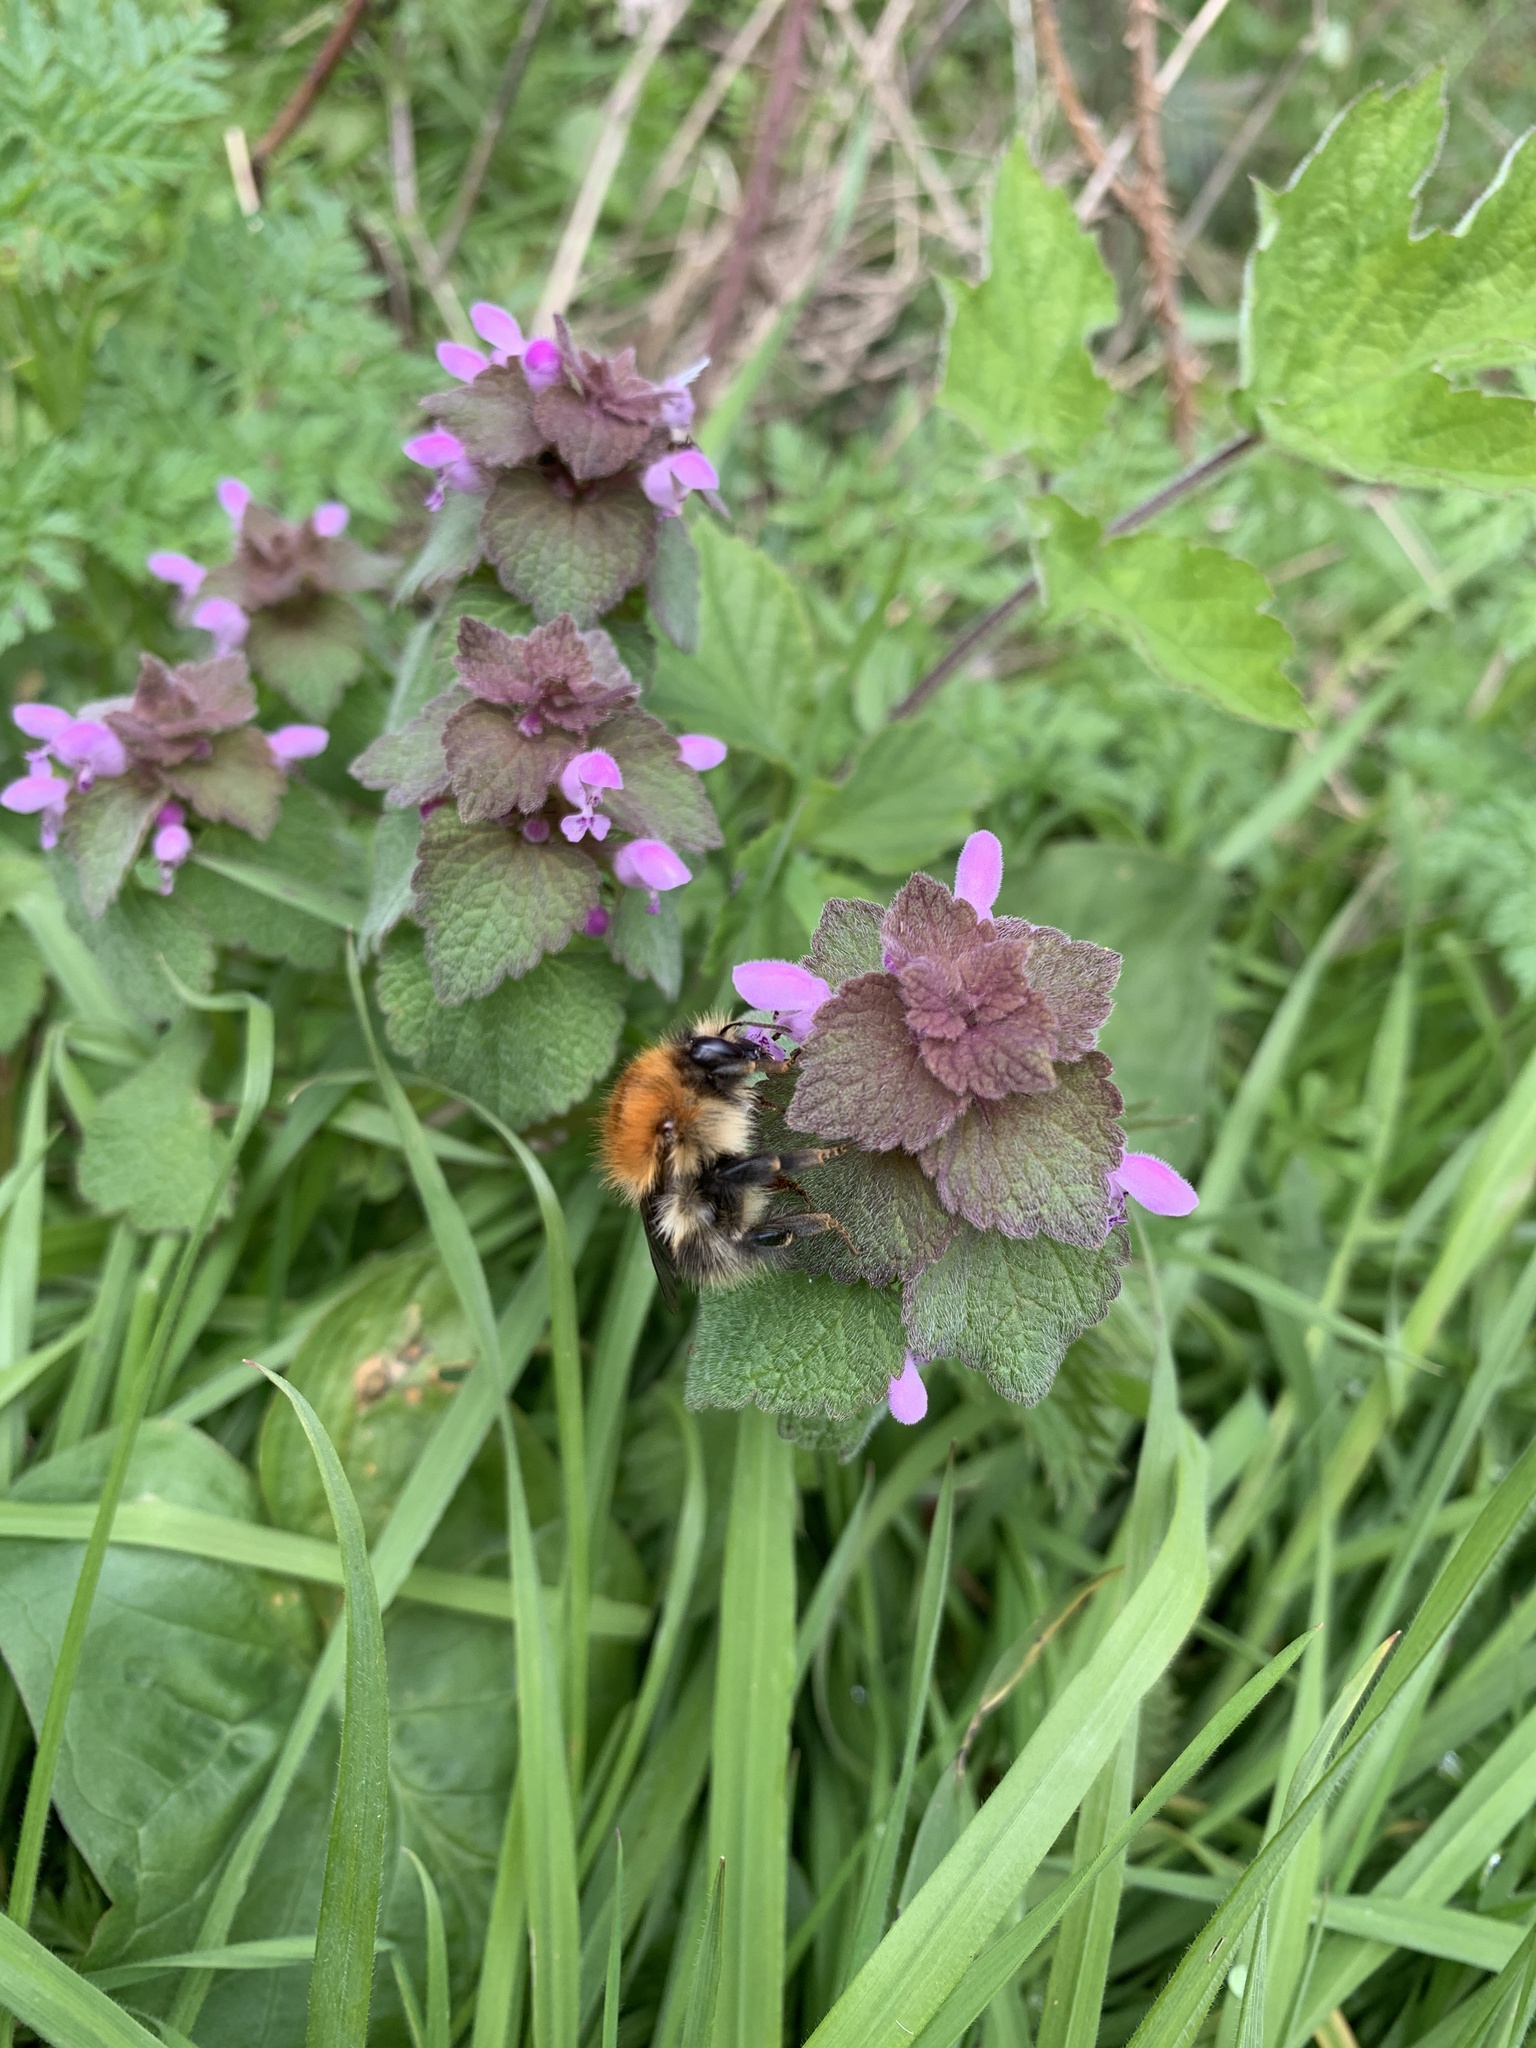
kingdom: Animalia
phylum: Arthropoda
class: Insecta
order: Hymenoptera
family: Apidae
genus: Bombus
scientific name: Bombus pascuorum
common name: Common carder bee
